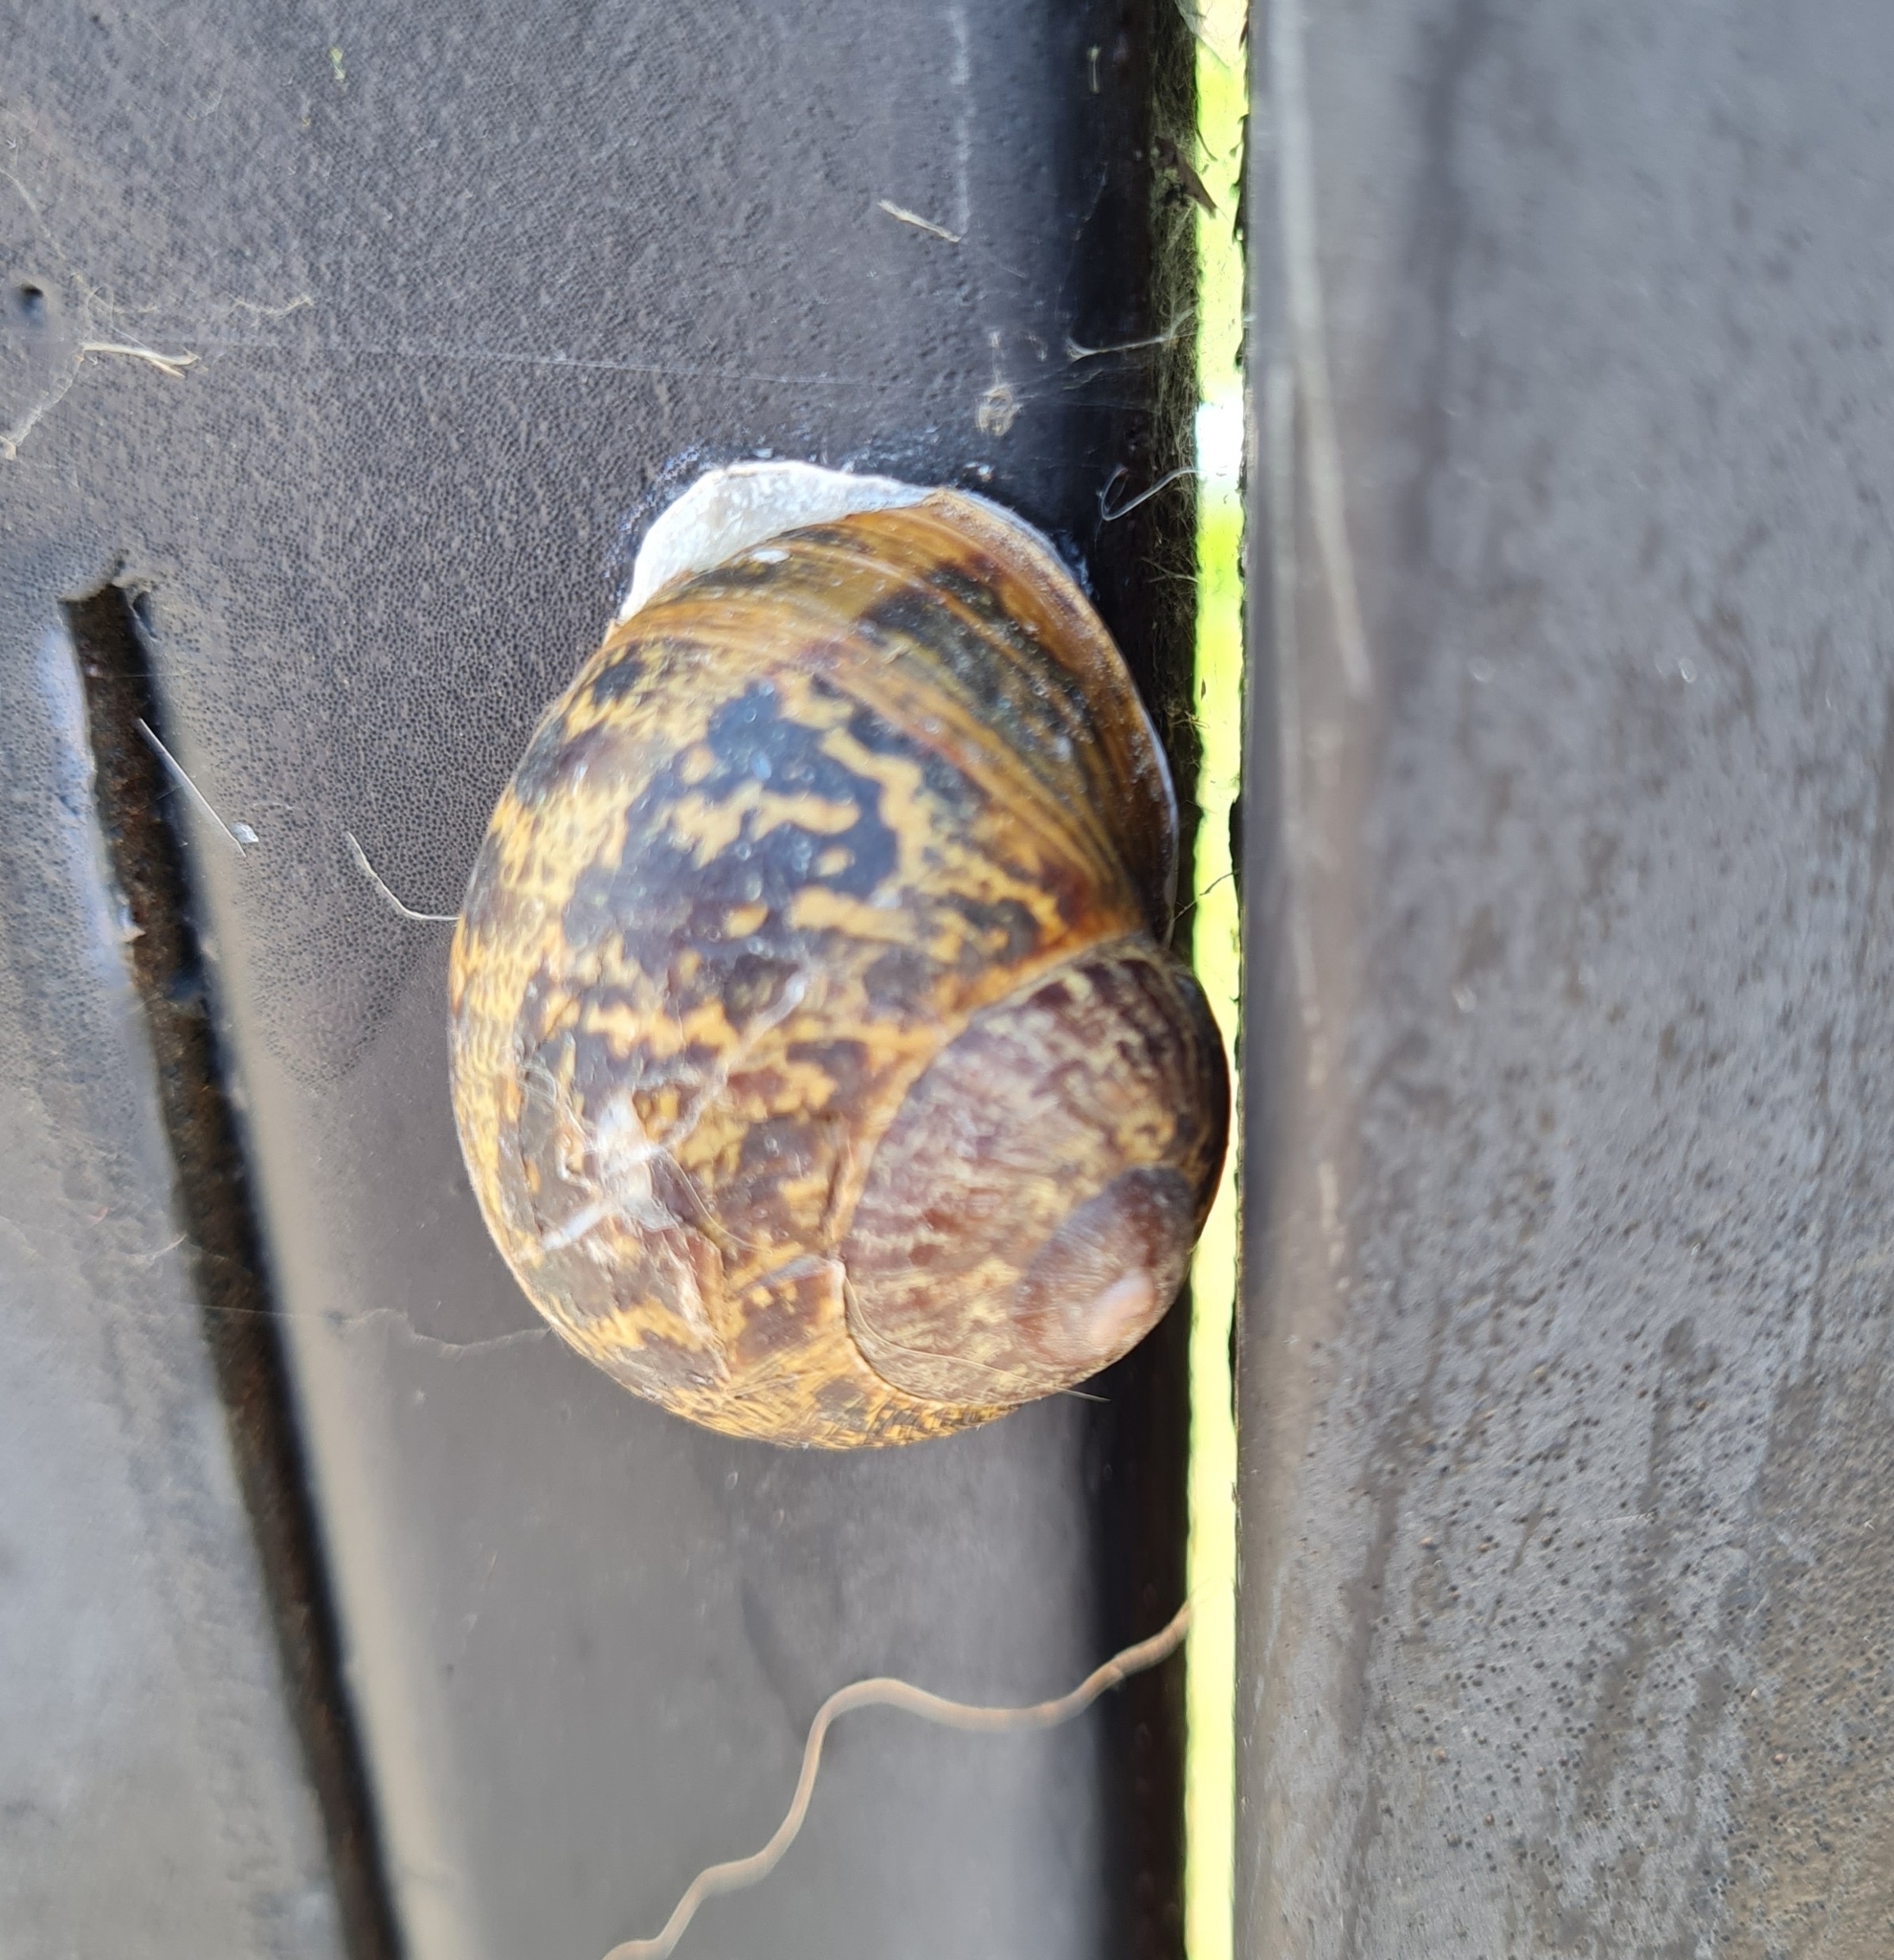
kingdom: Animalia
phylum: Mollusca
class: Gastropoda
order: Stylommatophora
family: Helicidae
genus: Cornu
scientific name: Cornu aspersum
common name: Brown garden snail
